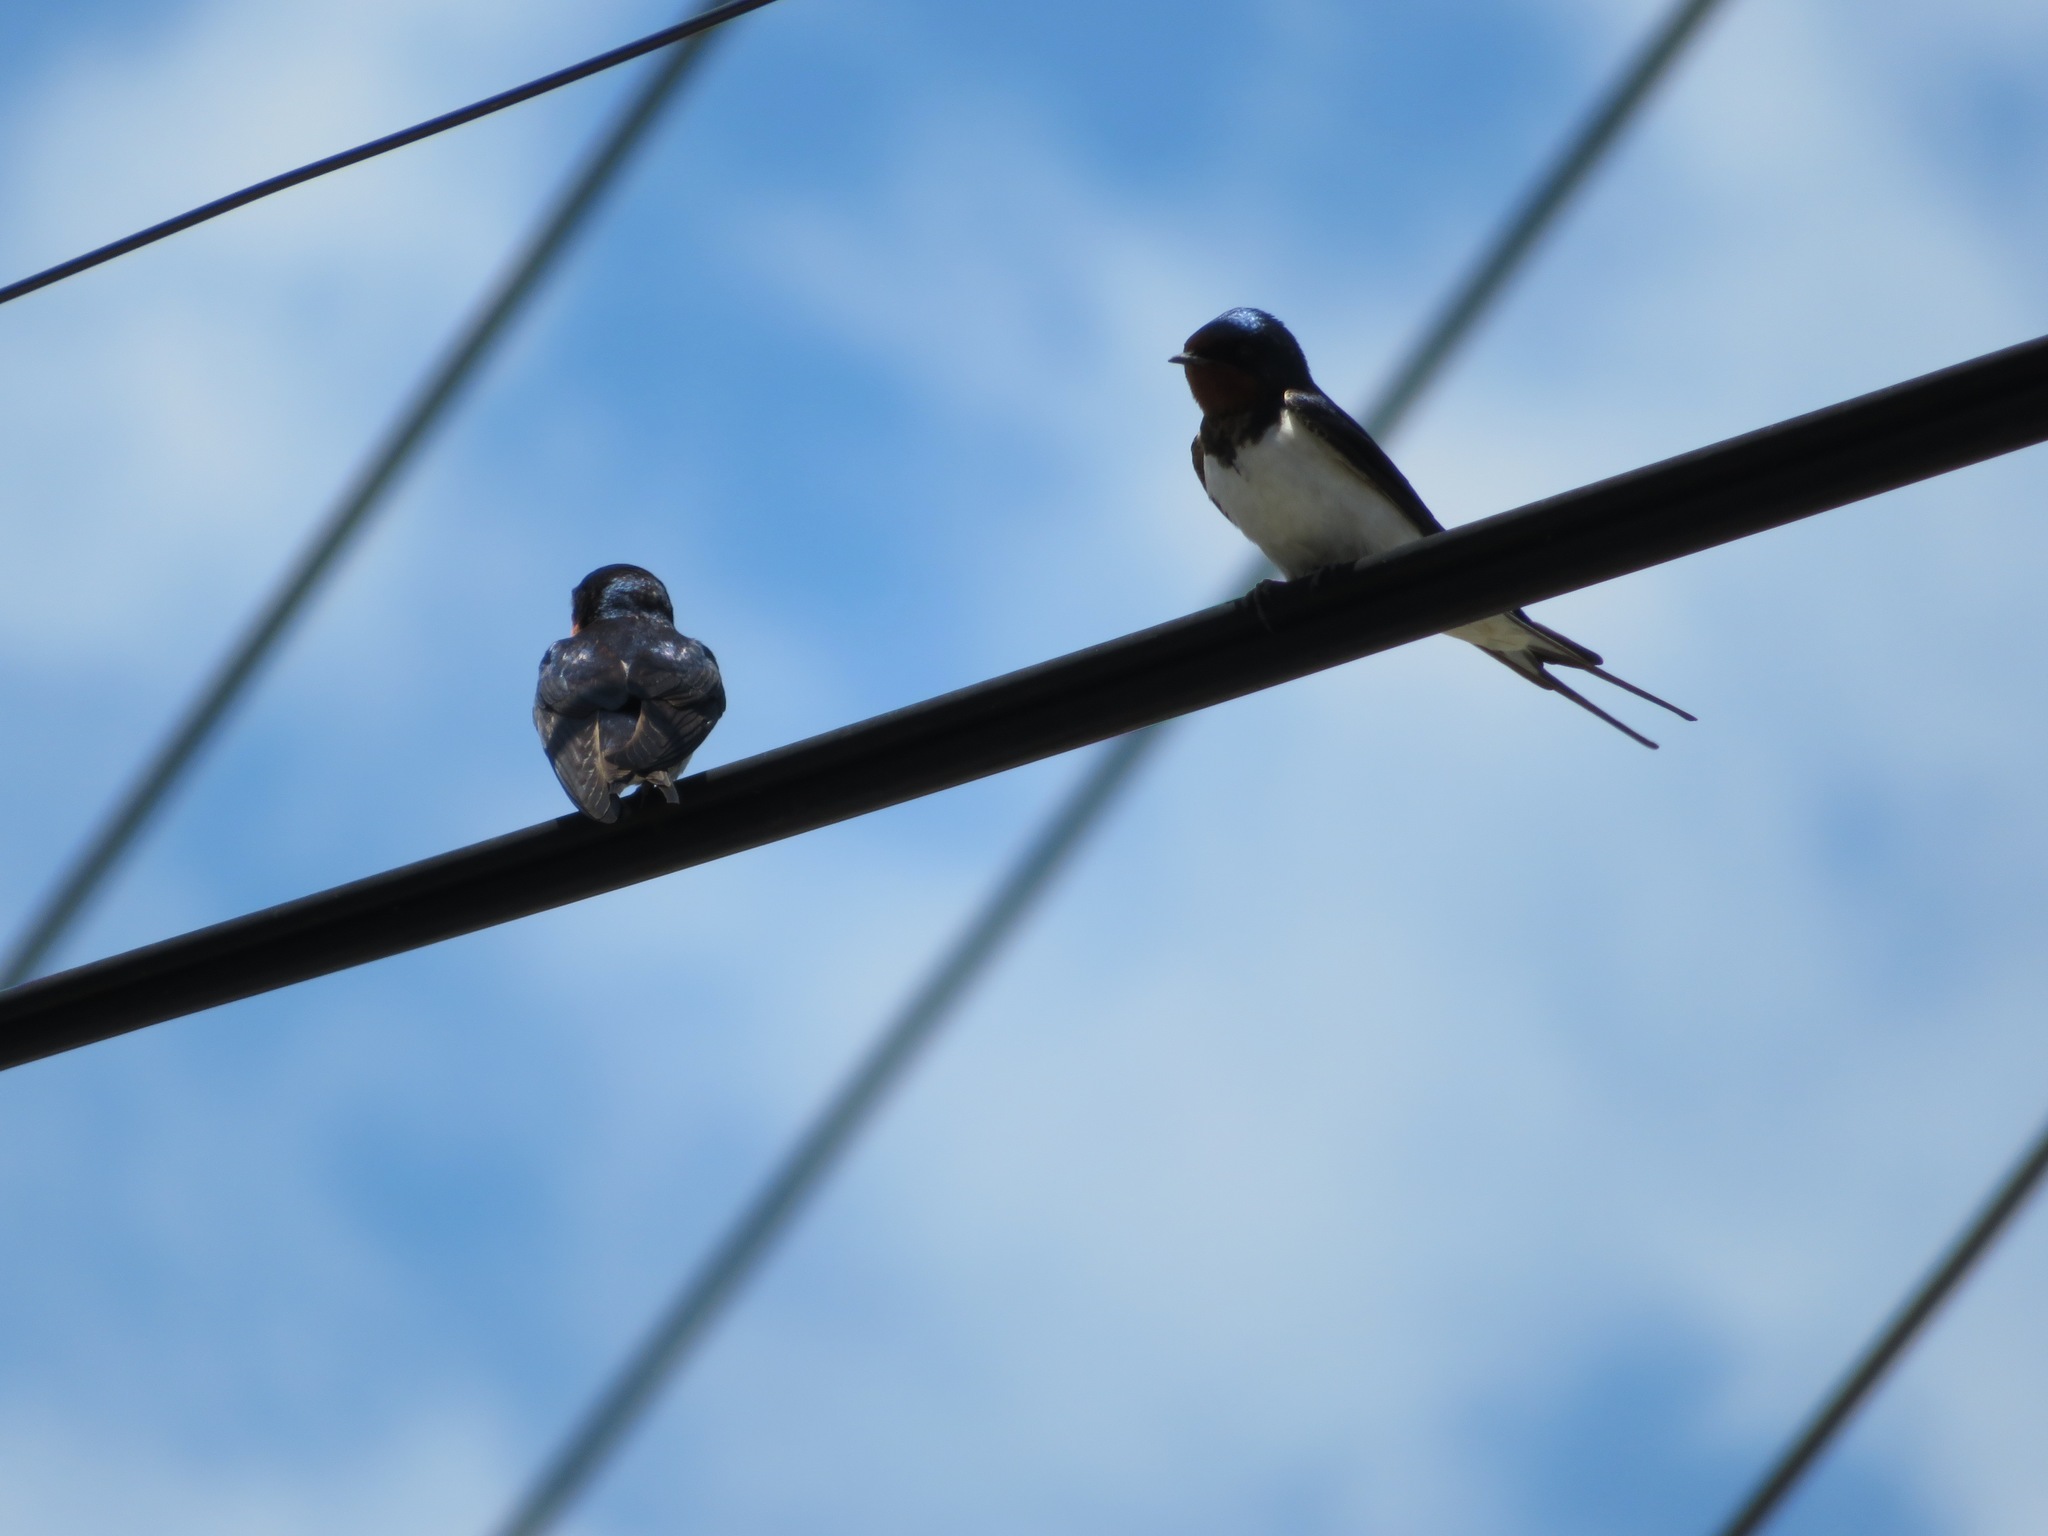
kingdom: Animalia
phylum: Chordata
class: Aves
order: Passeriformes
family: Hirundinidae
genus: Hirundo
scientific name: Hirundo rustica
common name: Barn swallow
